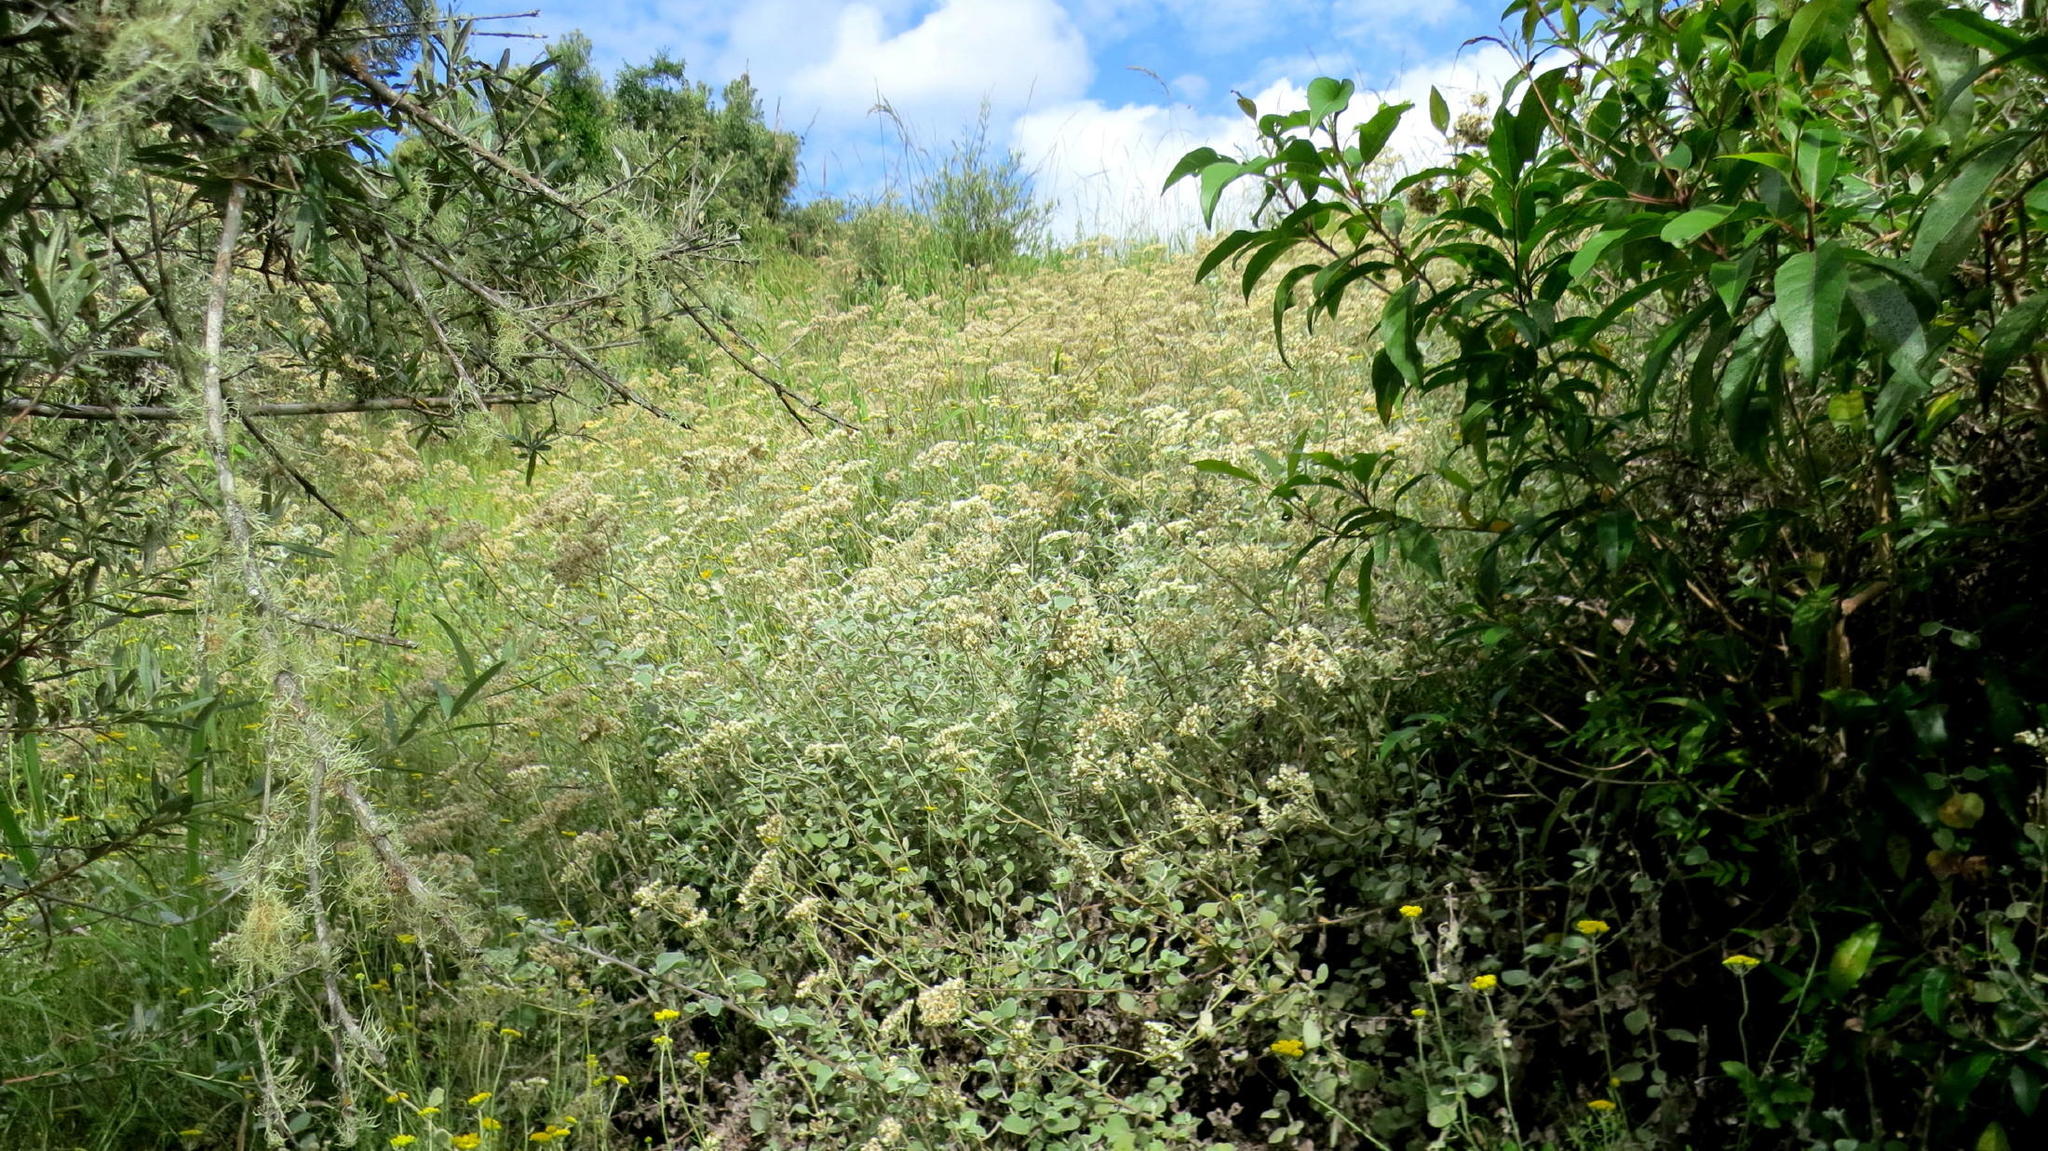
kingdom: Plantae
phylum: Tracheophyta
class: Magnoliopsida
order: Asterales
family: Asteraceae
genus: Helichrysum
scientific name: Helichrysum petiolare
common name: Licorice-plant
